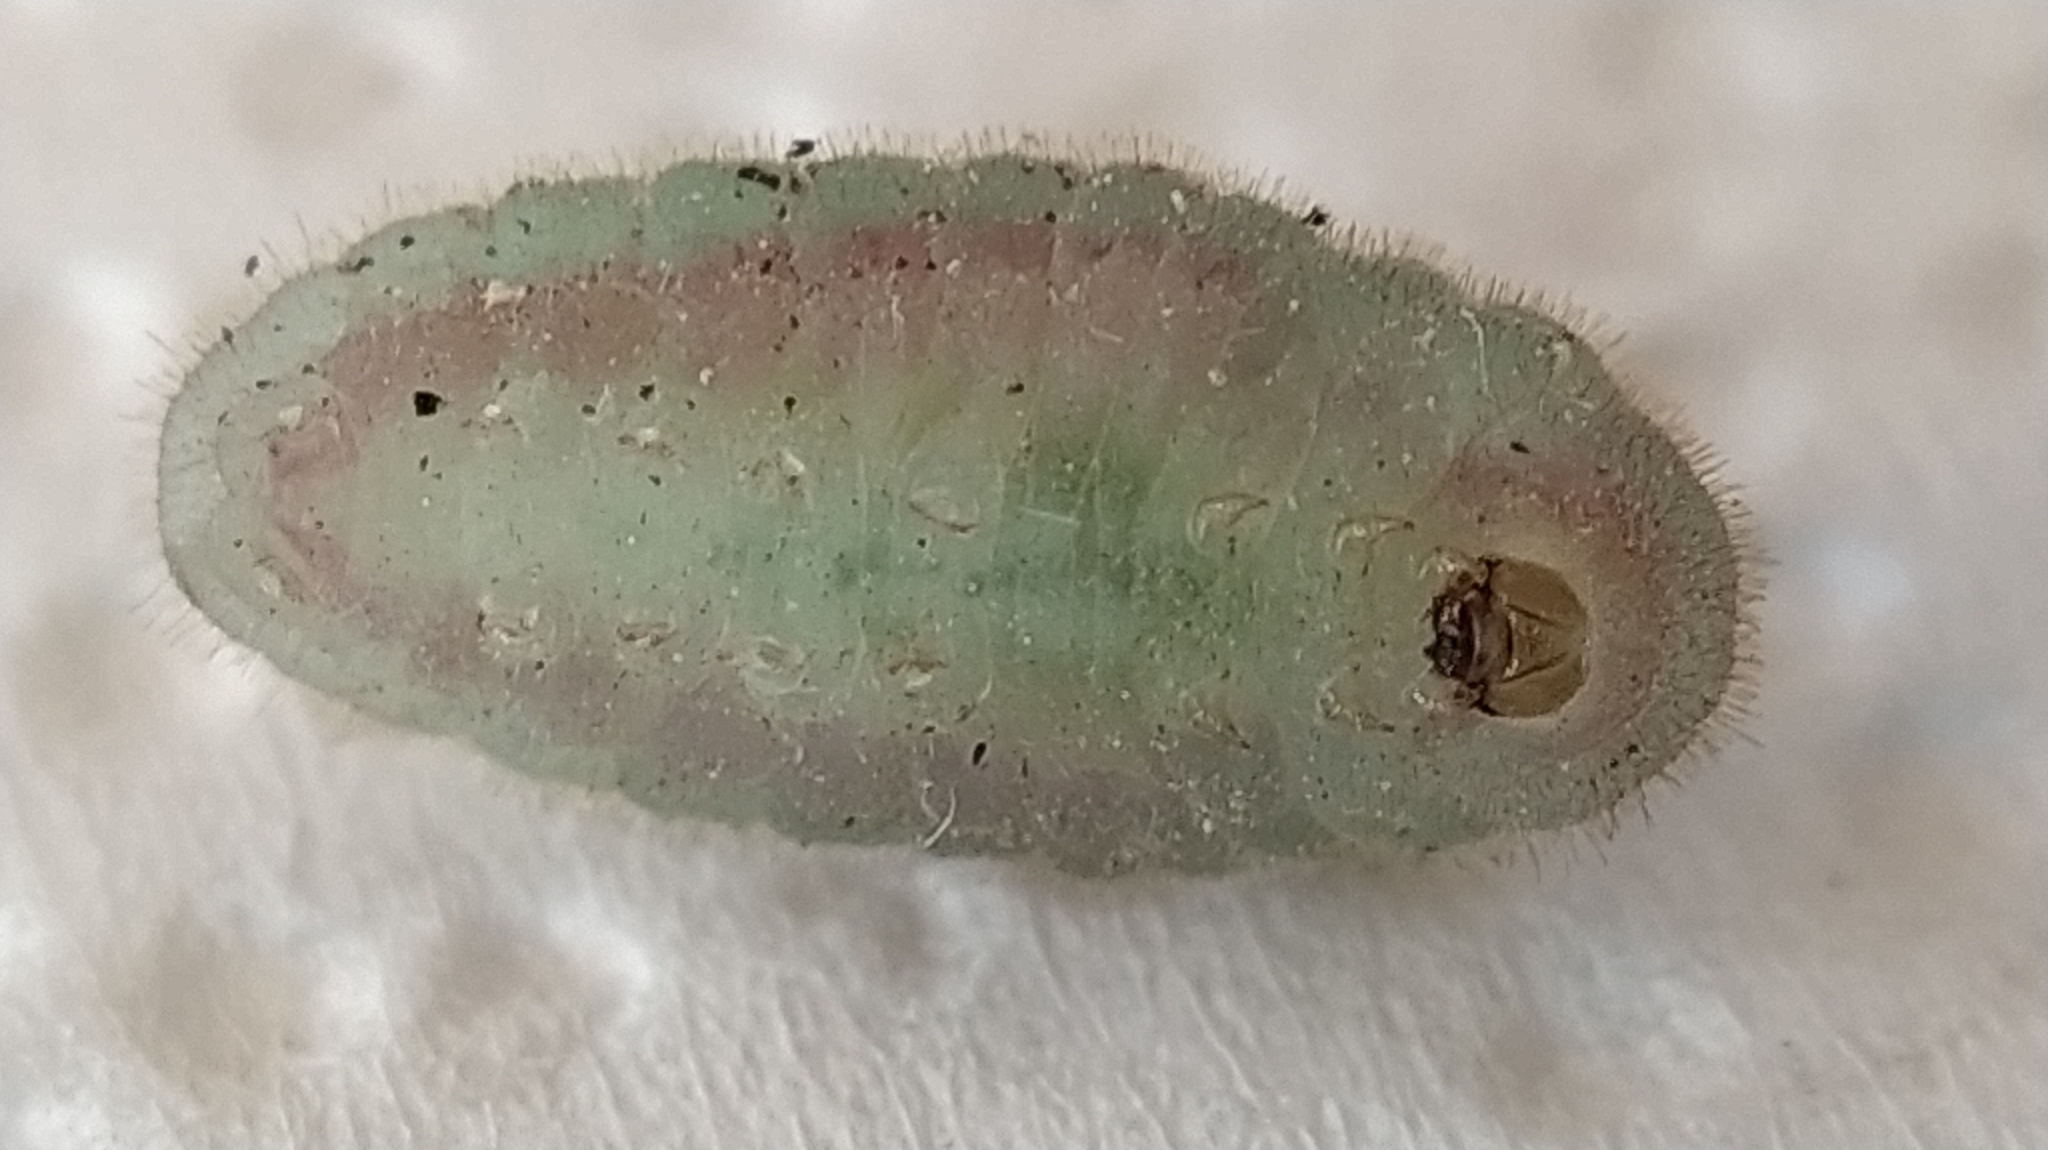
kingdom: Animalia
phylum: Arthropoda
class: Insecta
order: Lepidoptera
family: Lycaenidae
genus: Xamia
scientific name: Xamia xami
